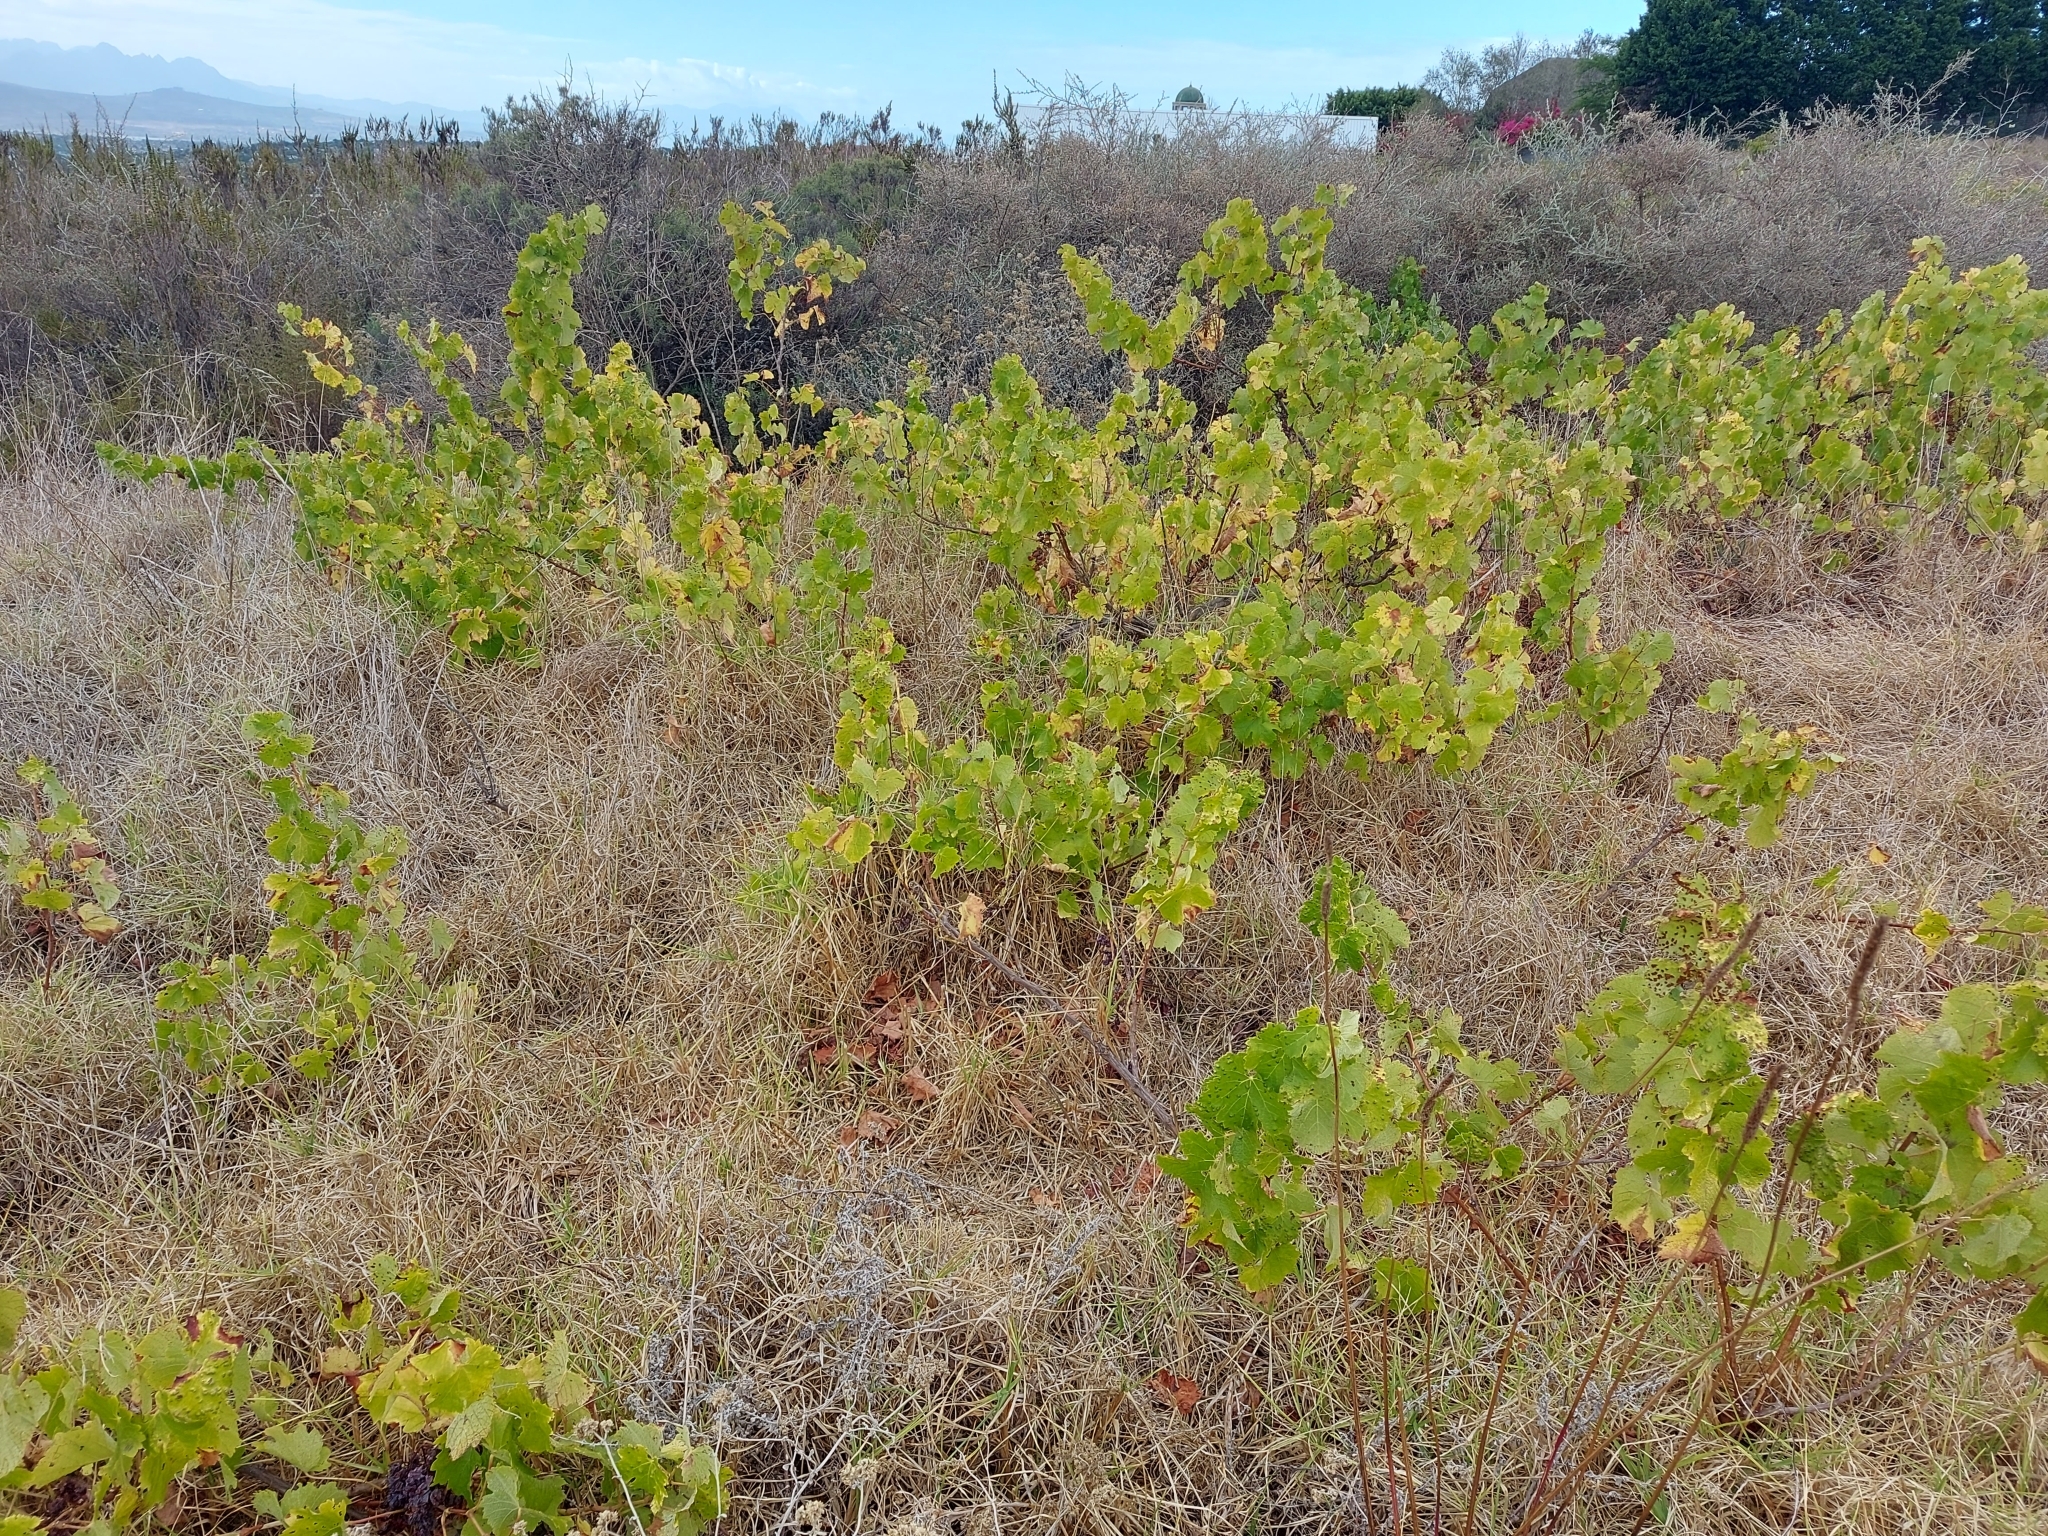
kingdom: Plantae
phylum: Tracheophyta
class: Magnoliopsida
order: Vitales
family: Vitaceae
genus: Vitis
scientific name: Vitis vinifera
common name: Grape-vine
